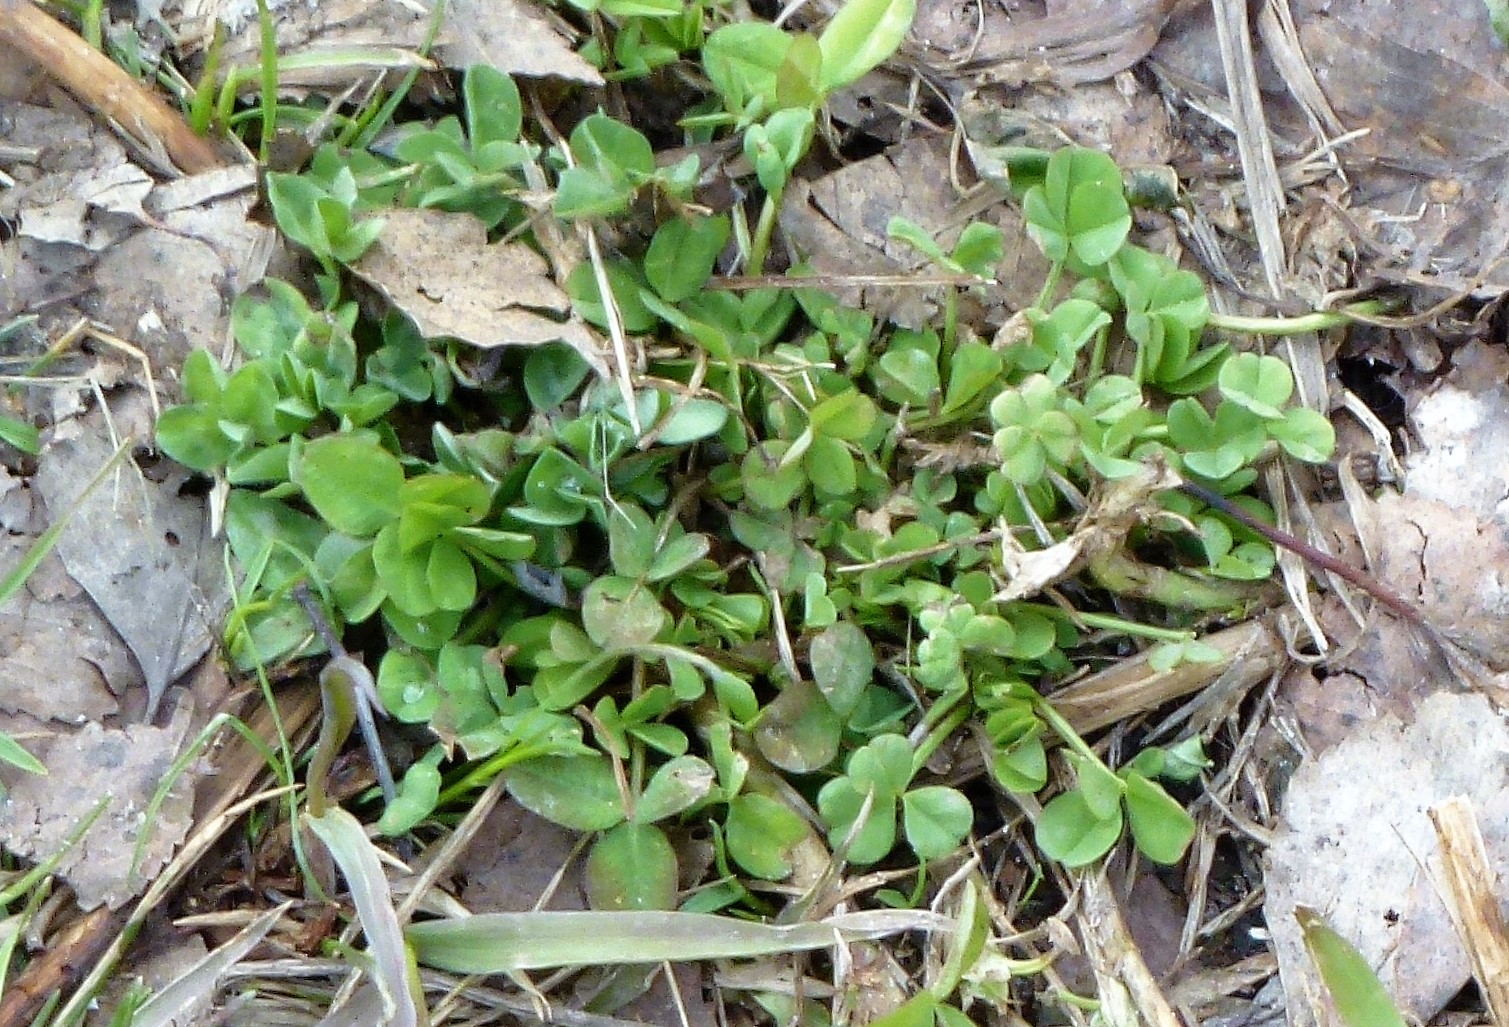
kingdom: Plantae
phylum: Tracheophyta
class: Magnoliopsida
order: Fabales
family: Fabaceae
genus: Trifolium
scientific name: Trifolium repens
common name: White clover
